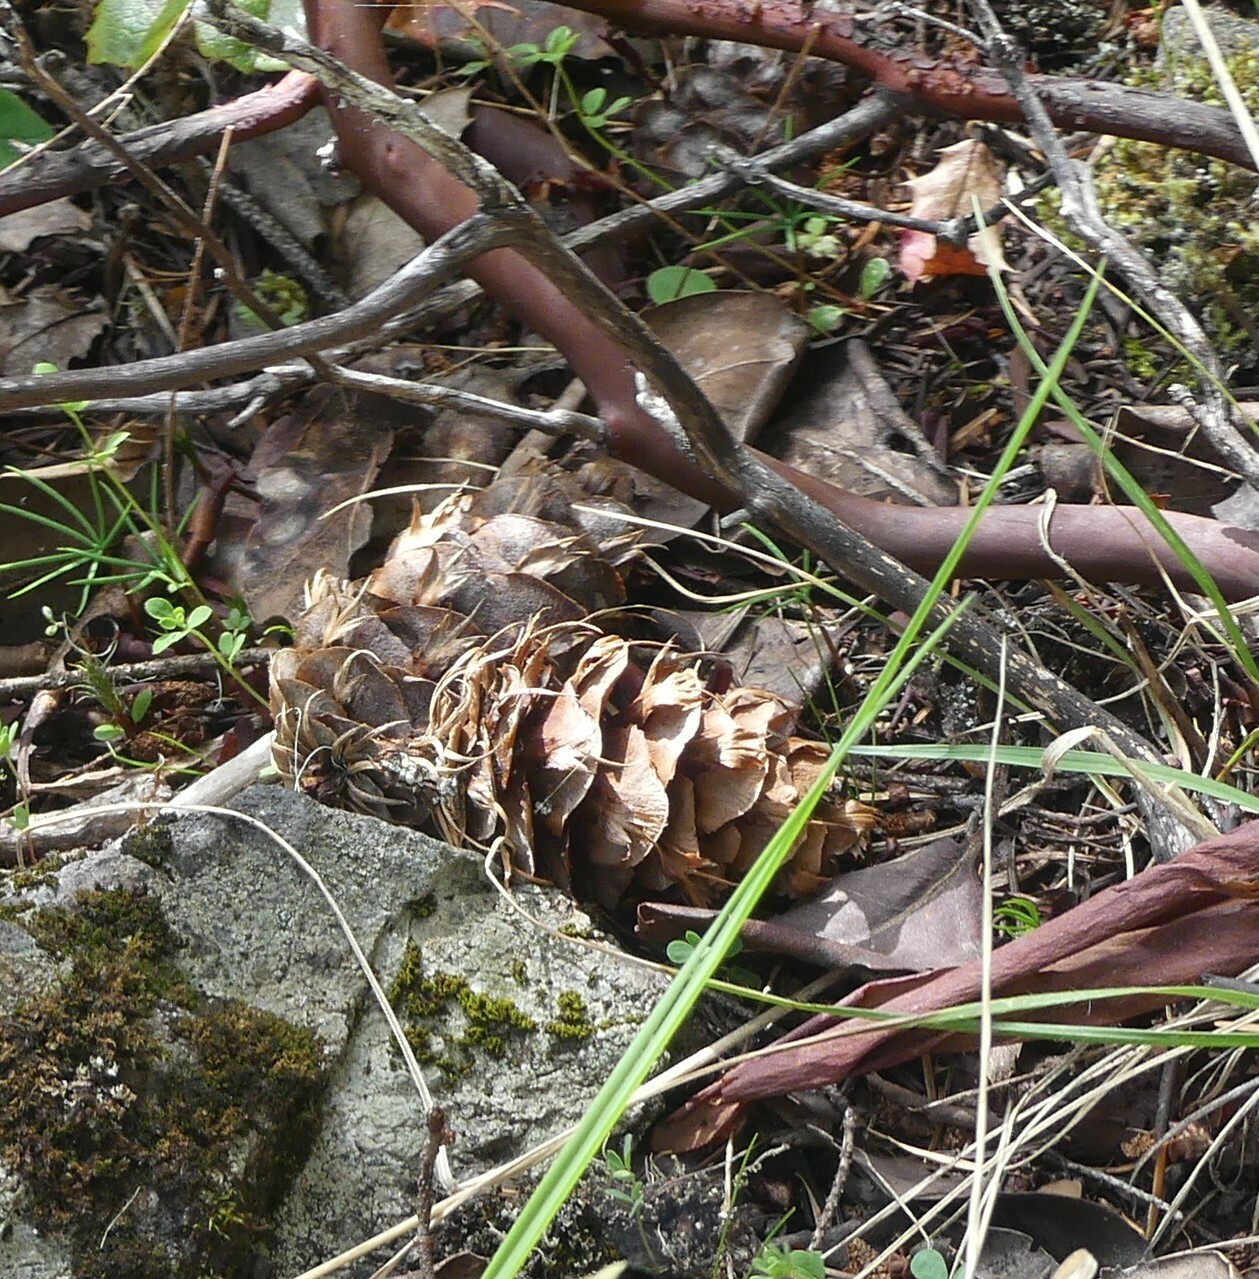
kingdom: Plantae
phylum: Tracheophyta
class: Pinopsida
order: Pinales
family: Pinaceae
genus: Pseudotsuga
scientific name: Pseudotsuga menziesii
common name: Douglas fir
